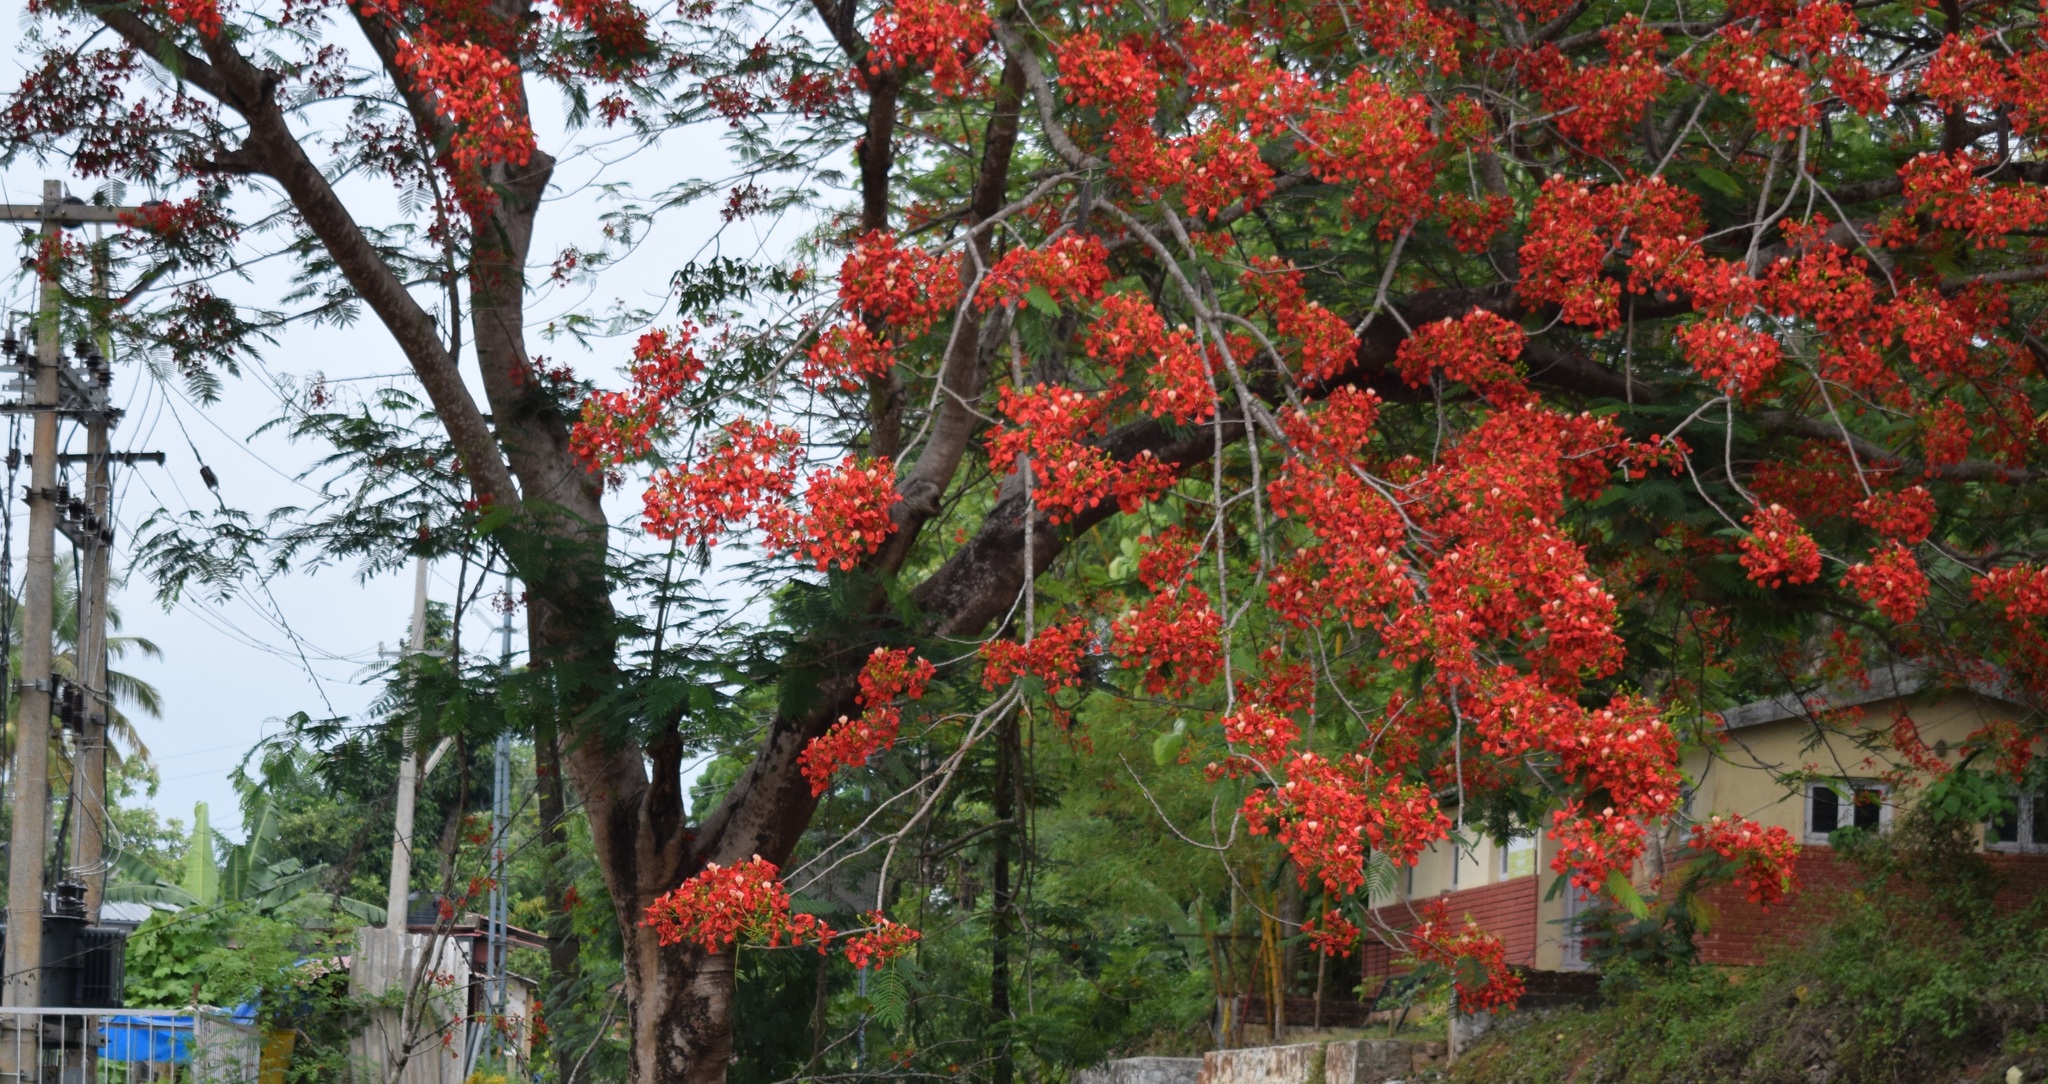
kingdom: Plantae
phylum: Tracheophyta
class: Magnoliopsida
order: Fabales
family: Fabaceae
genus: Delonix
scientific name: Delonix regia
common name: Royal poinciana
